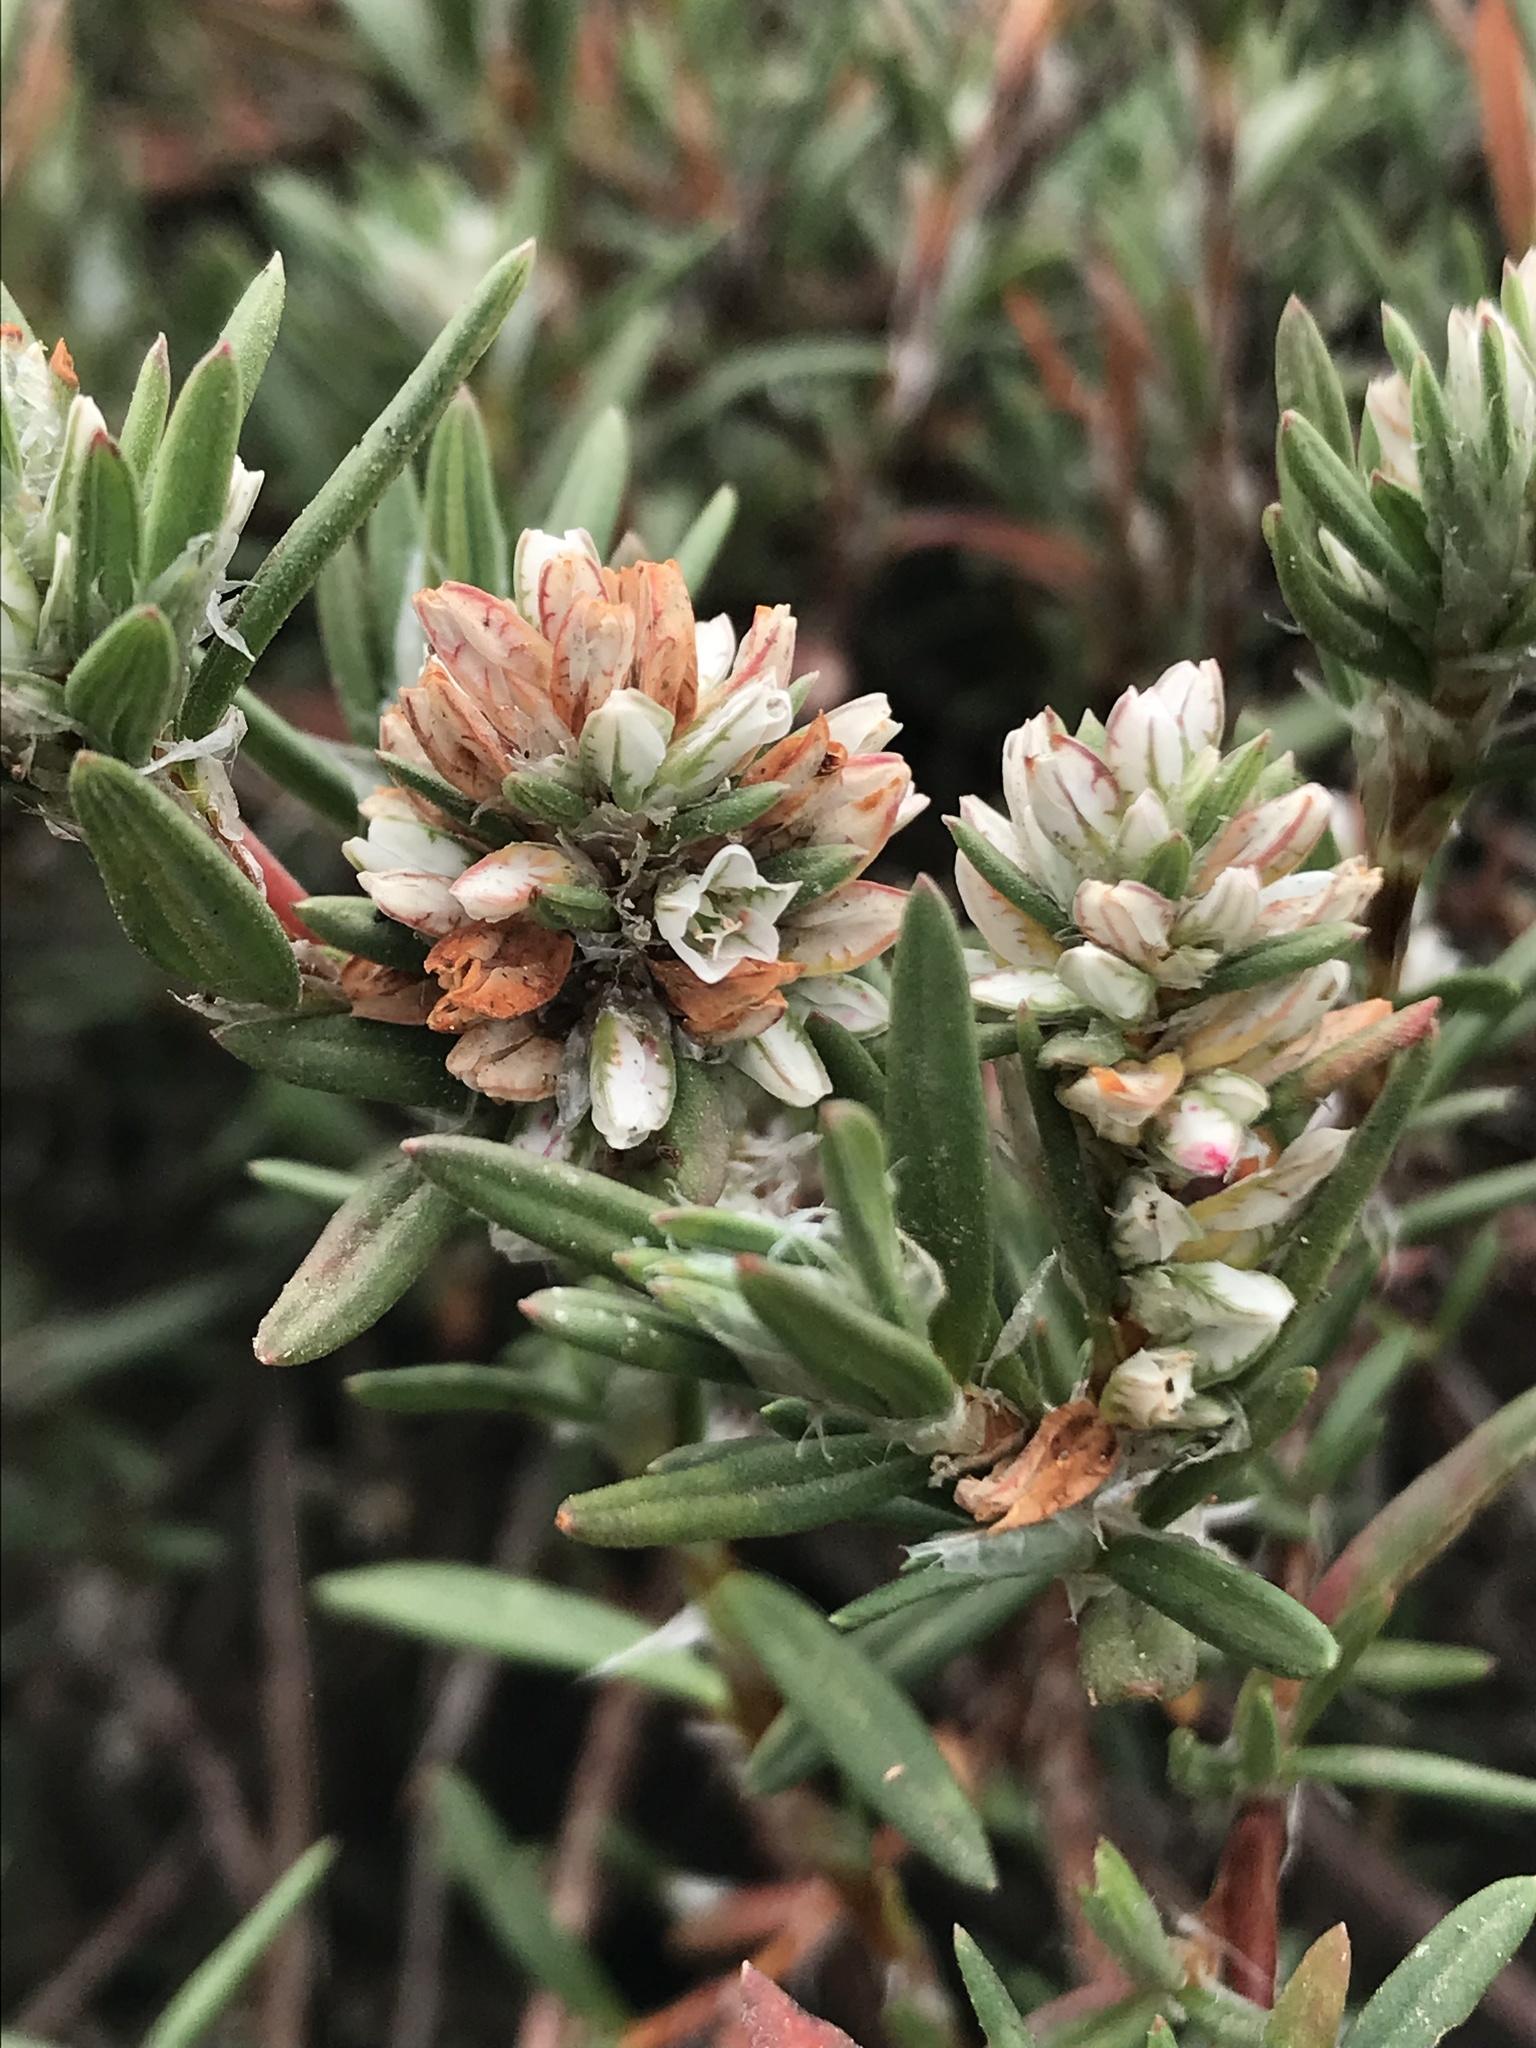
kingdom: Plantae
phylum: Tracheophyta
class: Magnoliopsida
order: Caryophyllales
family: Polygonaceae
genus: Polygonum
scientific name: Polygonum paronychia
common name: Dune knotweed
